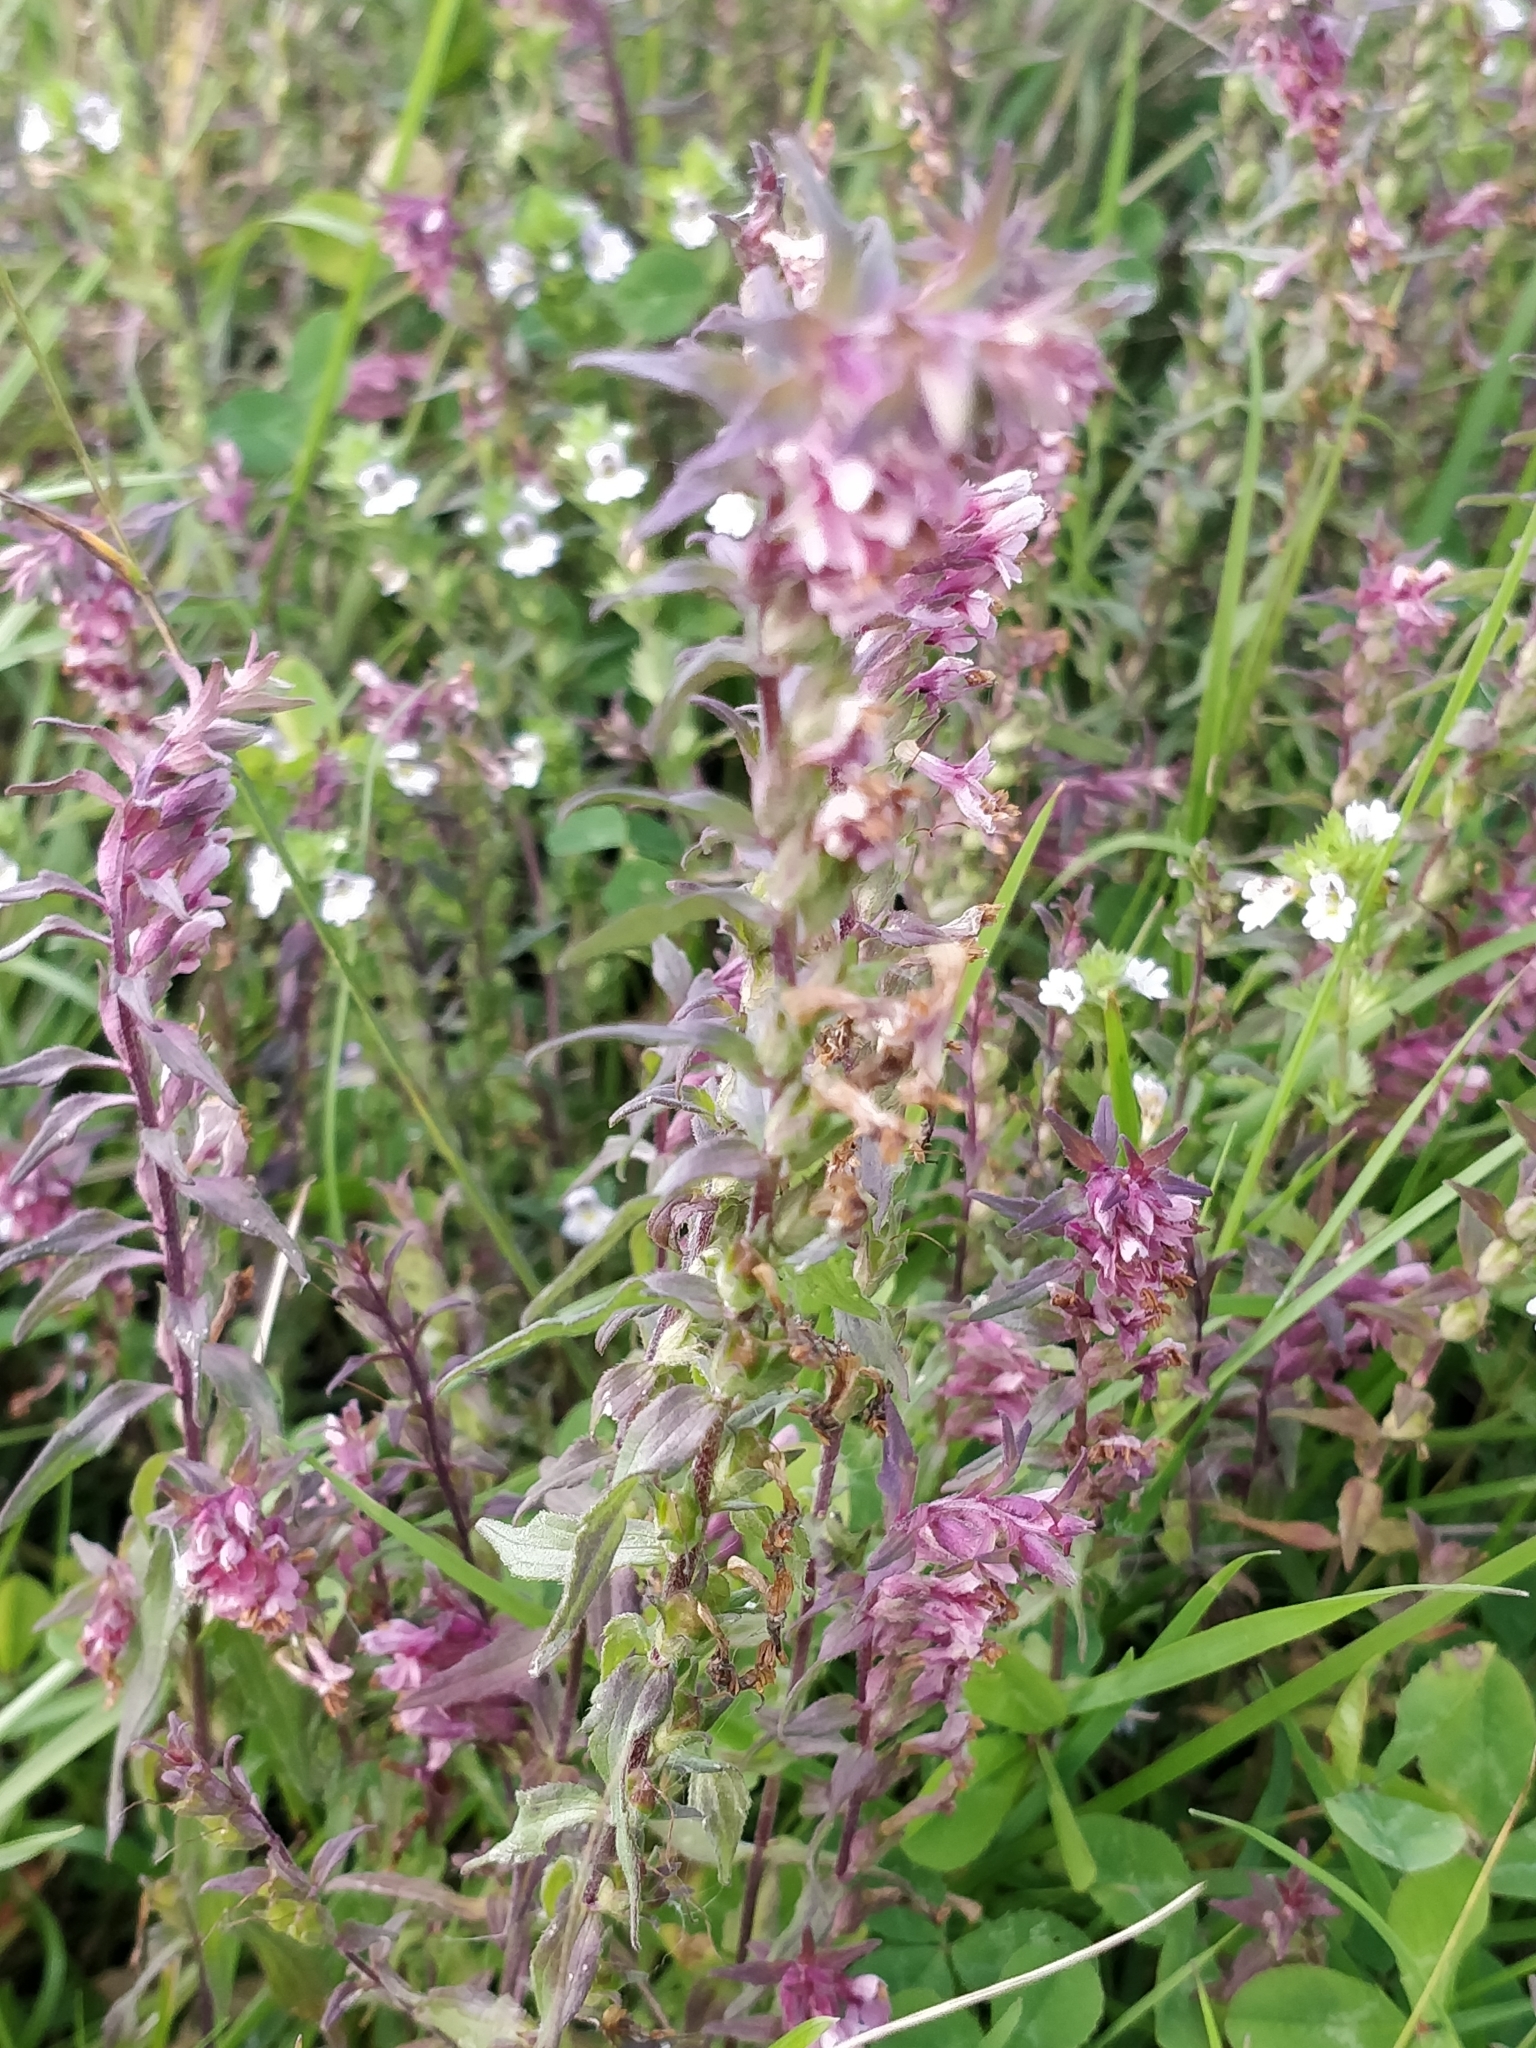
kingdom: Plantae
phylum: Tracheophyta
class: Magnoliopsida
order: Lamiales
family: Orobanchaceae
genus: Odontites
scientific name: Odontites vulgaris
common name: Broomrape
